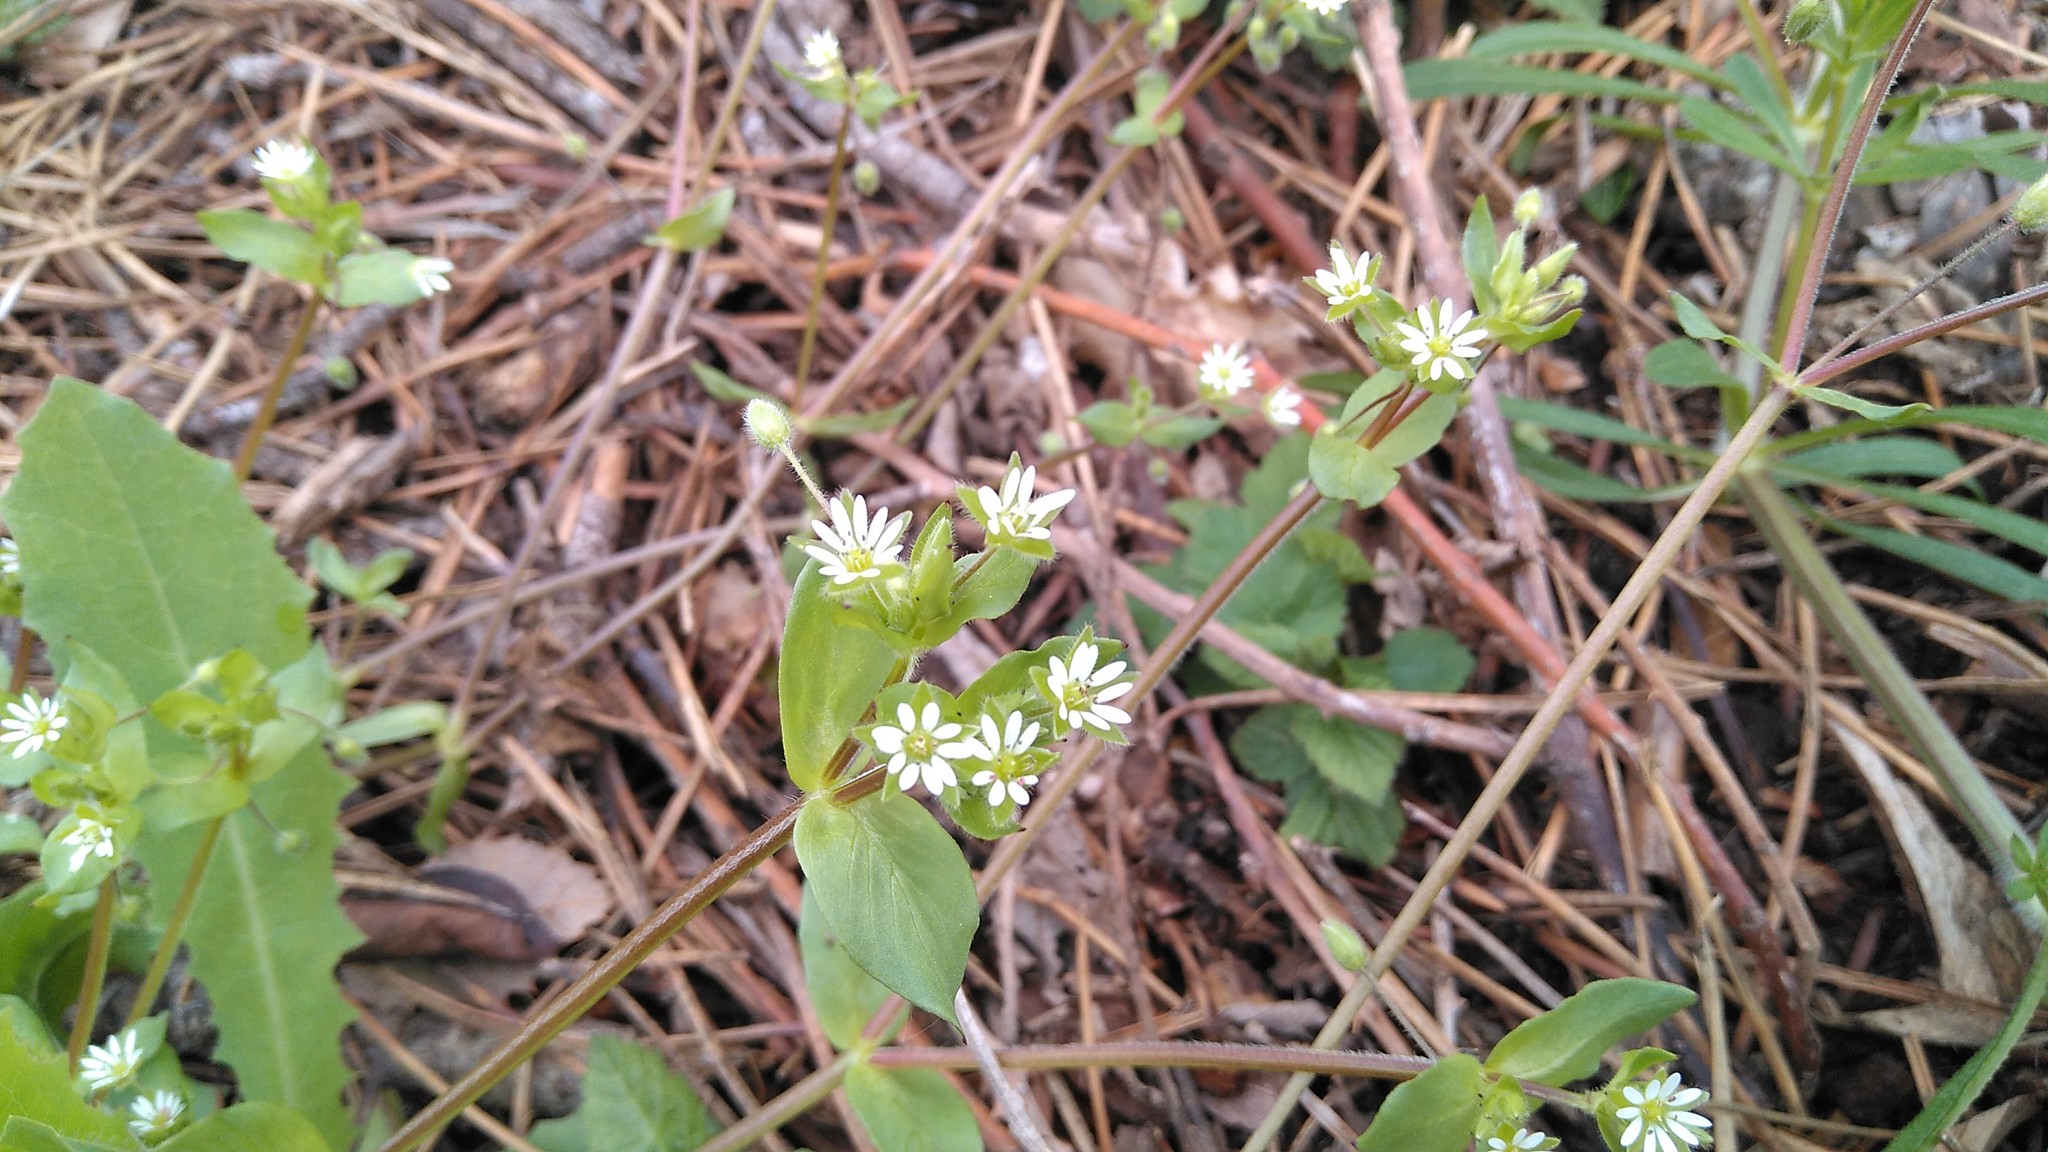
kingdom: Plantae
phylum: Tracheophyta
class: Magnoliopsida
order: Caryophyllales
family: Caryophyllaceae
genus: Stellaria
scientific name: Stellaria media
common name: Common chickweed
